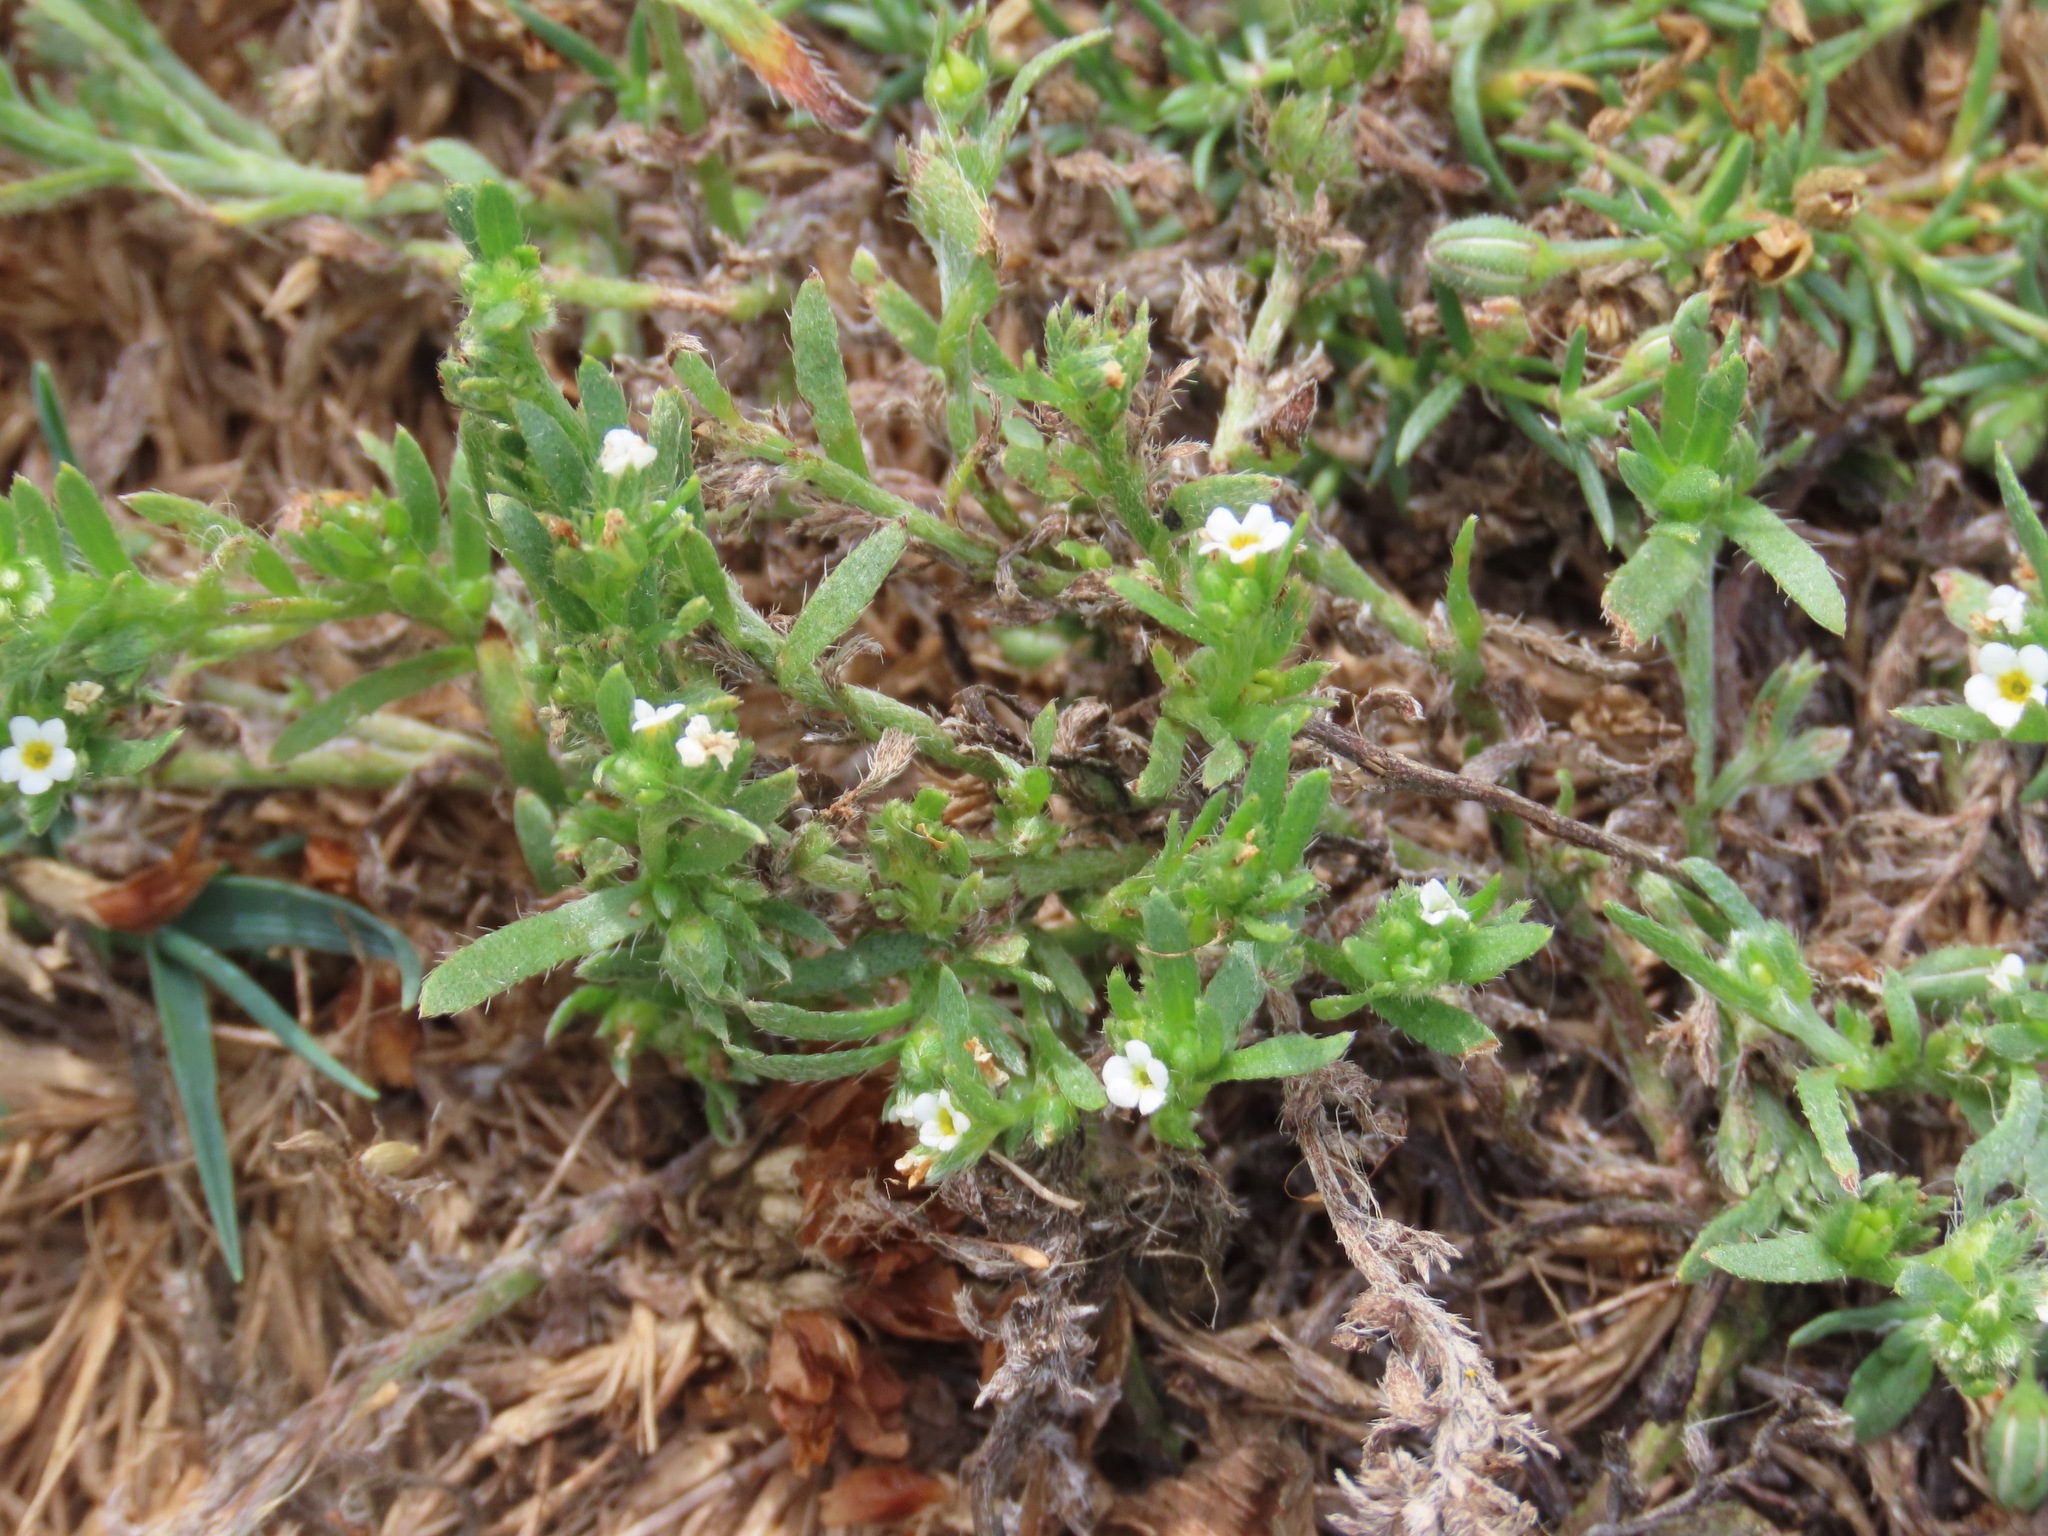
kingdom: Plantae
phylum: Tracheophyta
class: Magnoliopsida
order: Boraginales
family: Boraginaceae
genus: Plagiobothrys
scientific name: Plagiobothrys scouleri
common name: White forget-me-not
